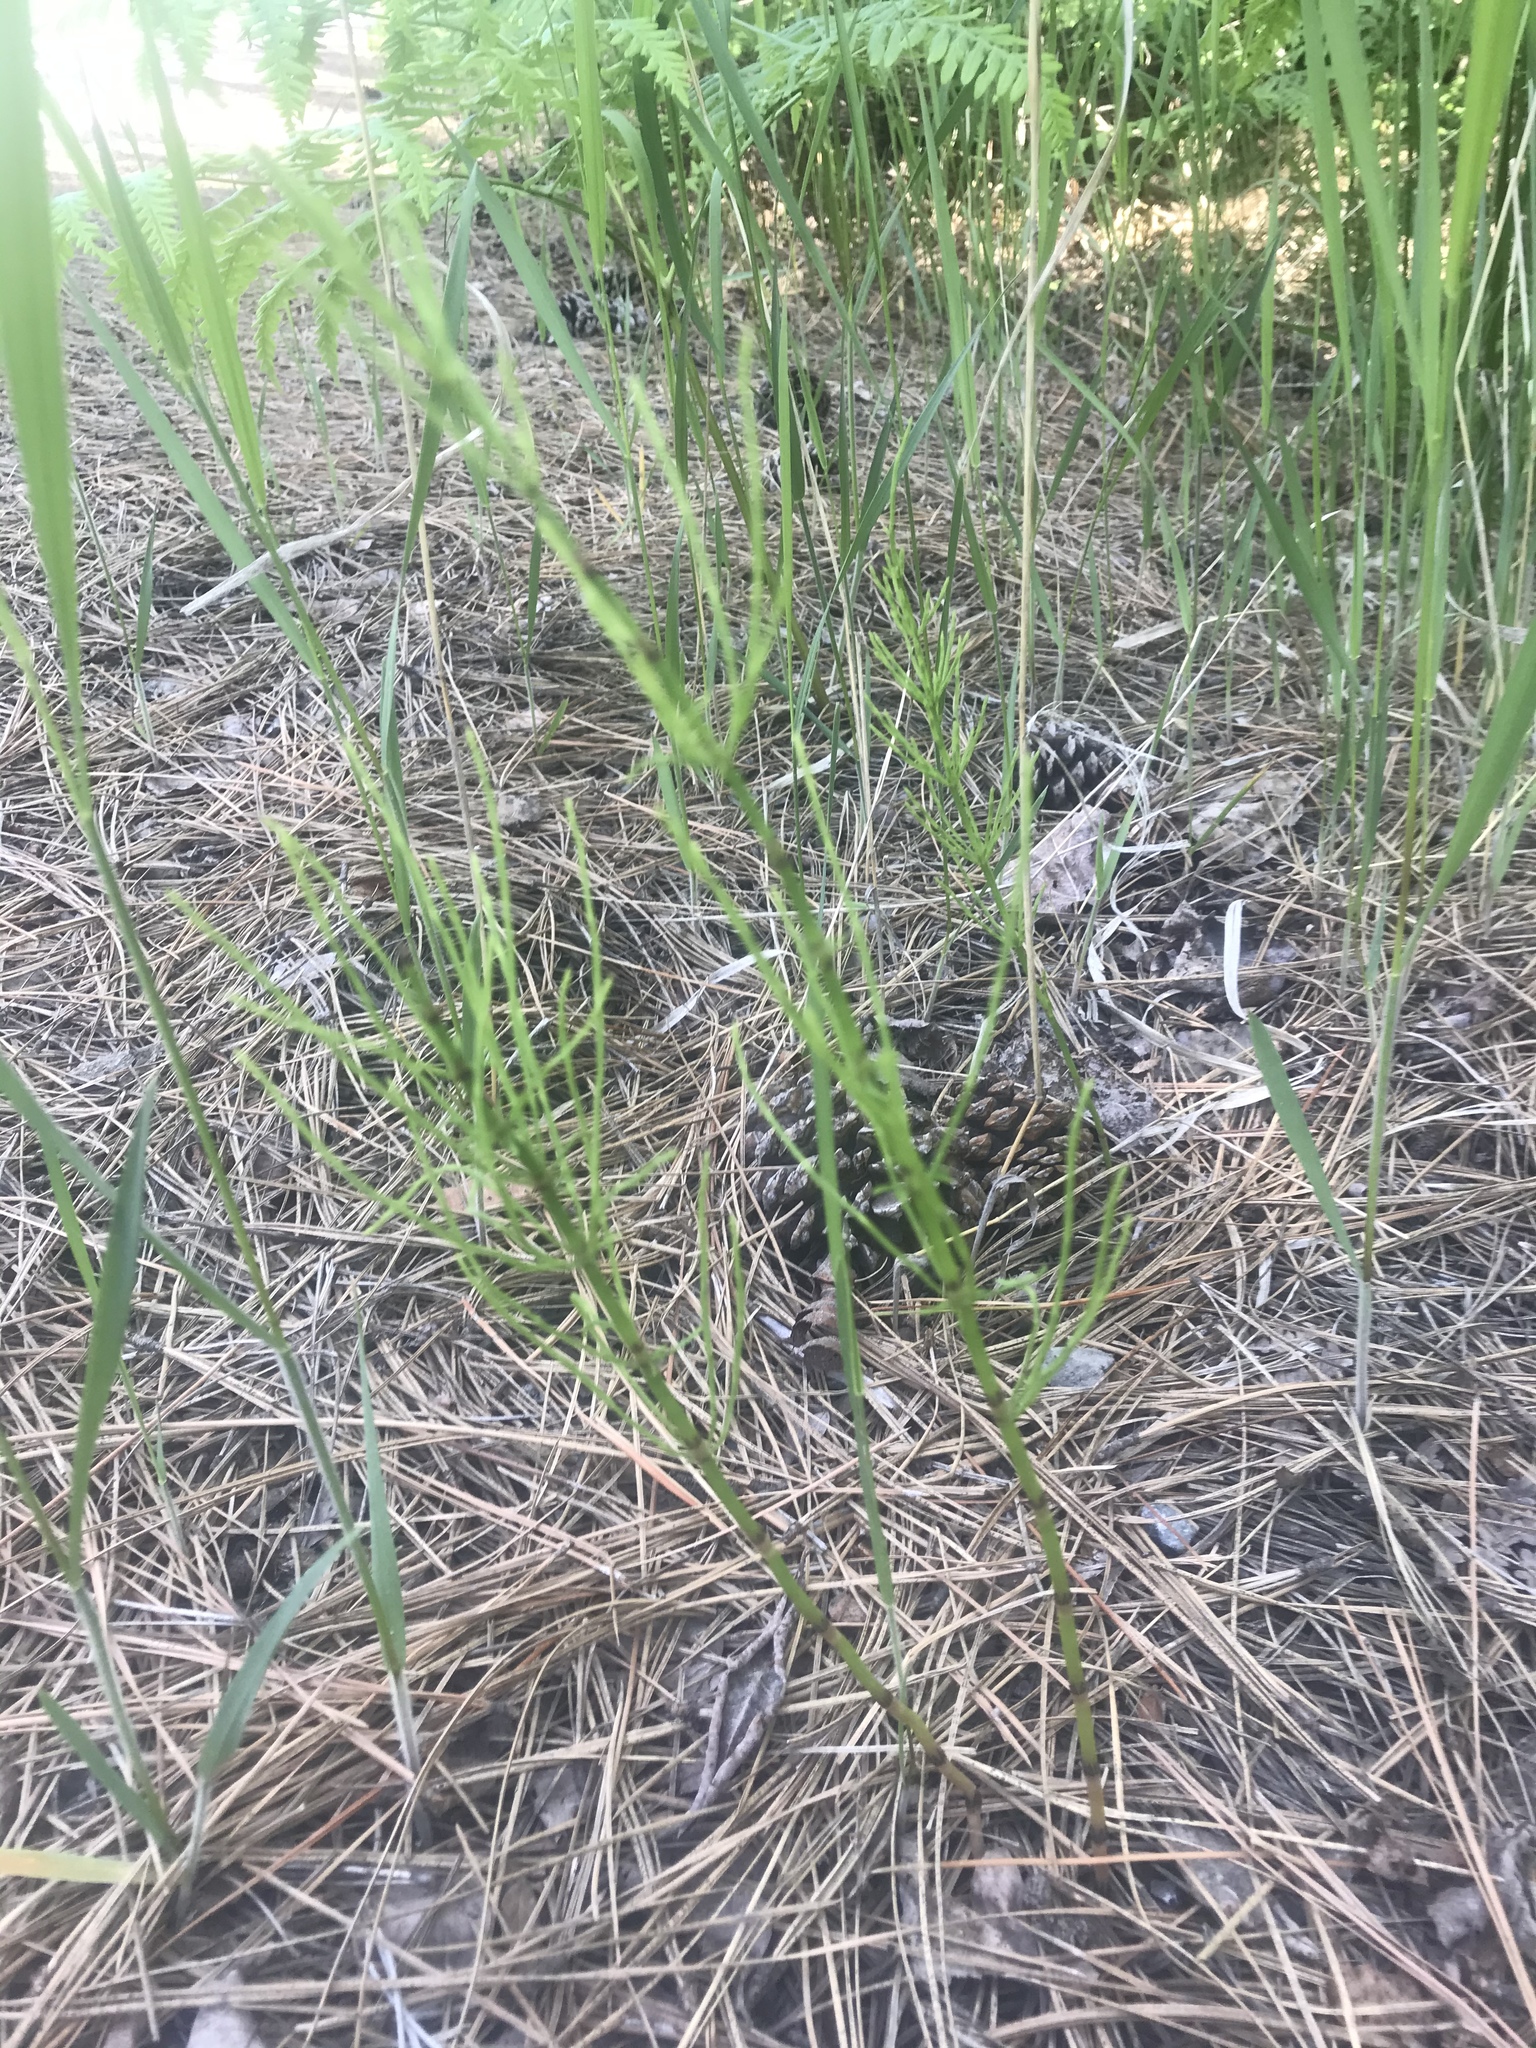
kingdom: Plantae
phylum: Tracheophyta
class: Polypodiopsida
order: Equisetales
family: Equisetaceae
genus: Equisetum
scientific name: Equisetum arvense
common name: Field horsetail
